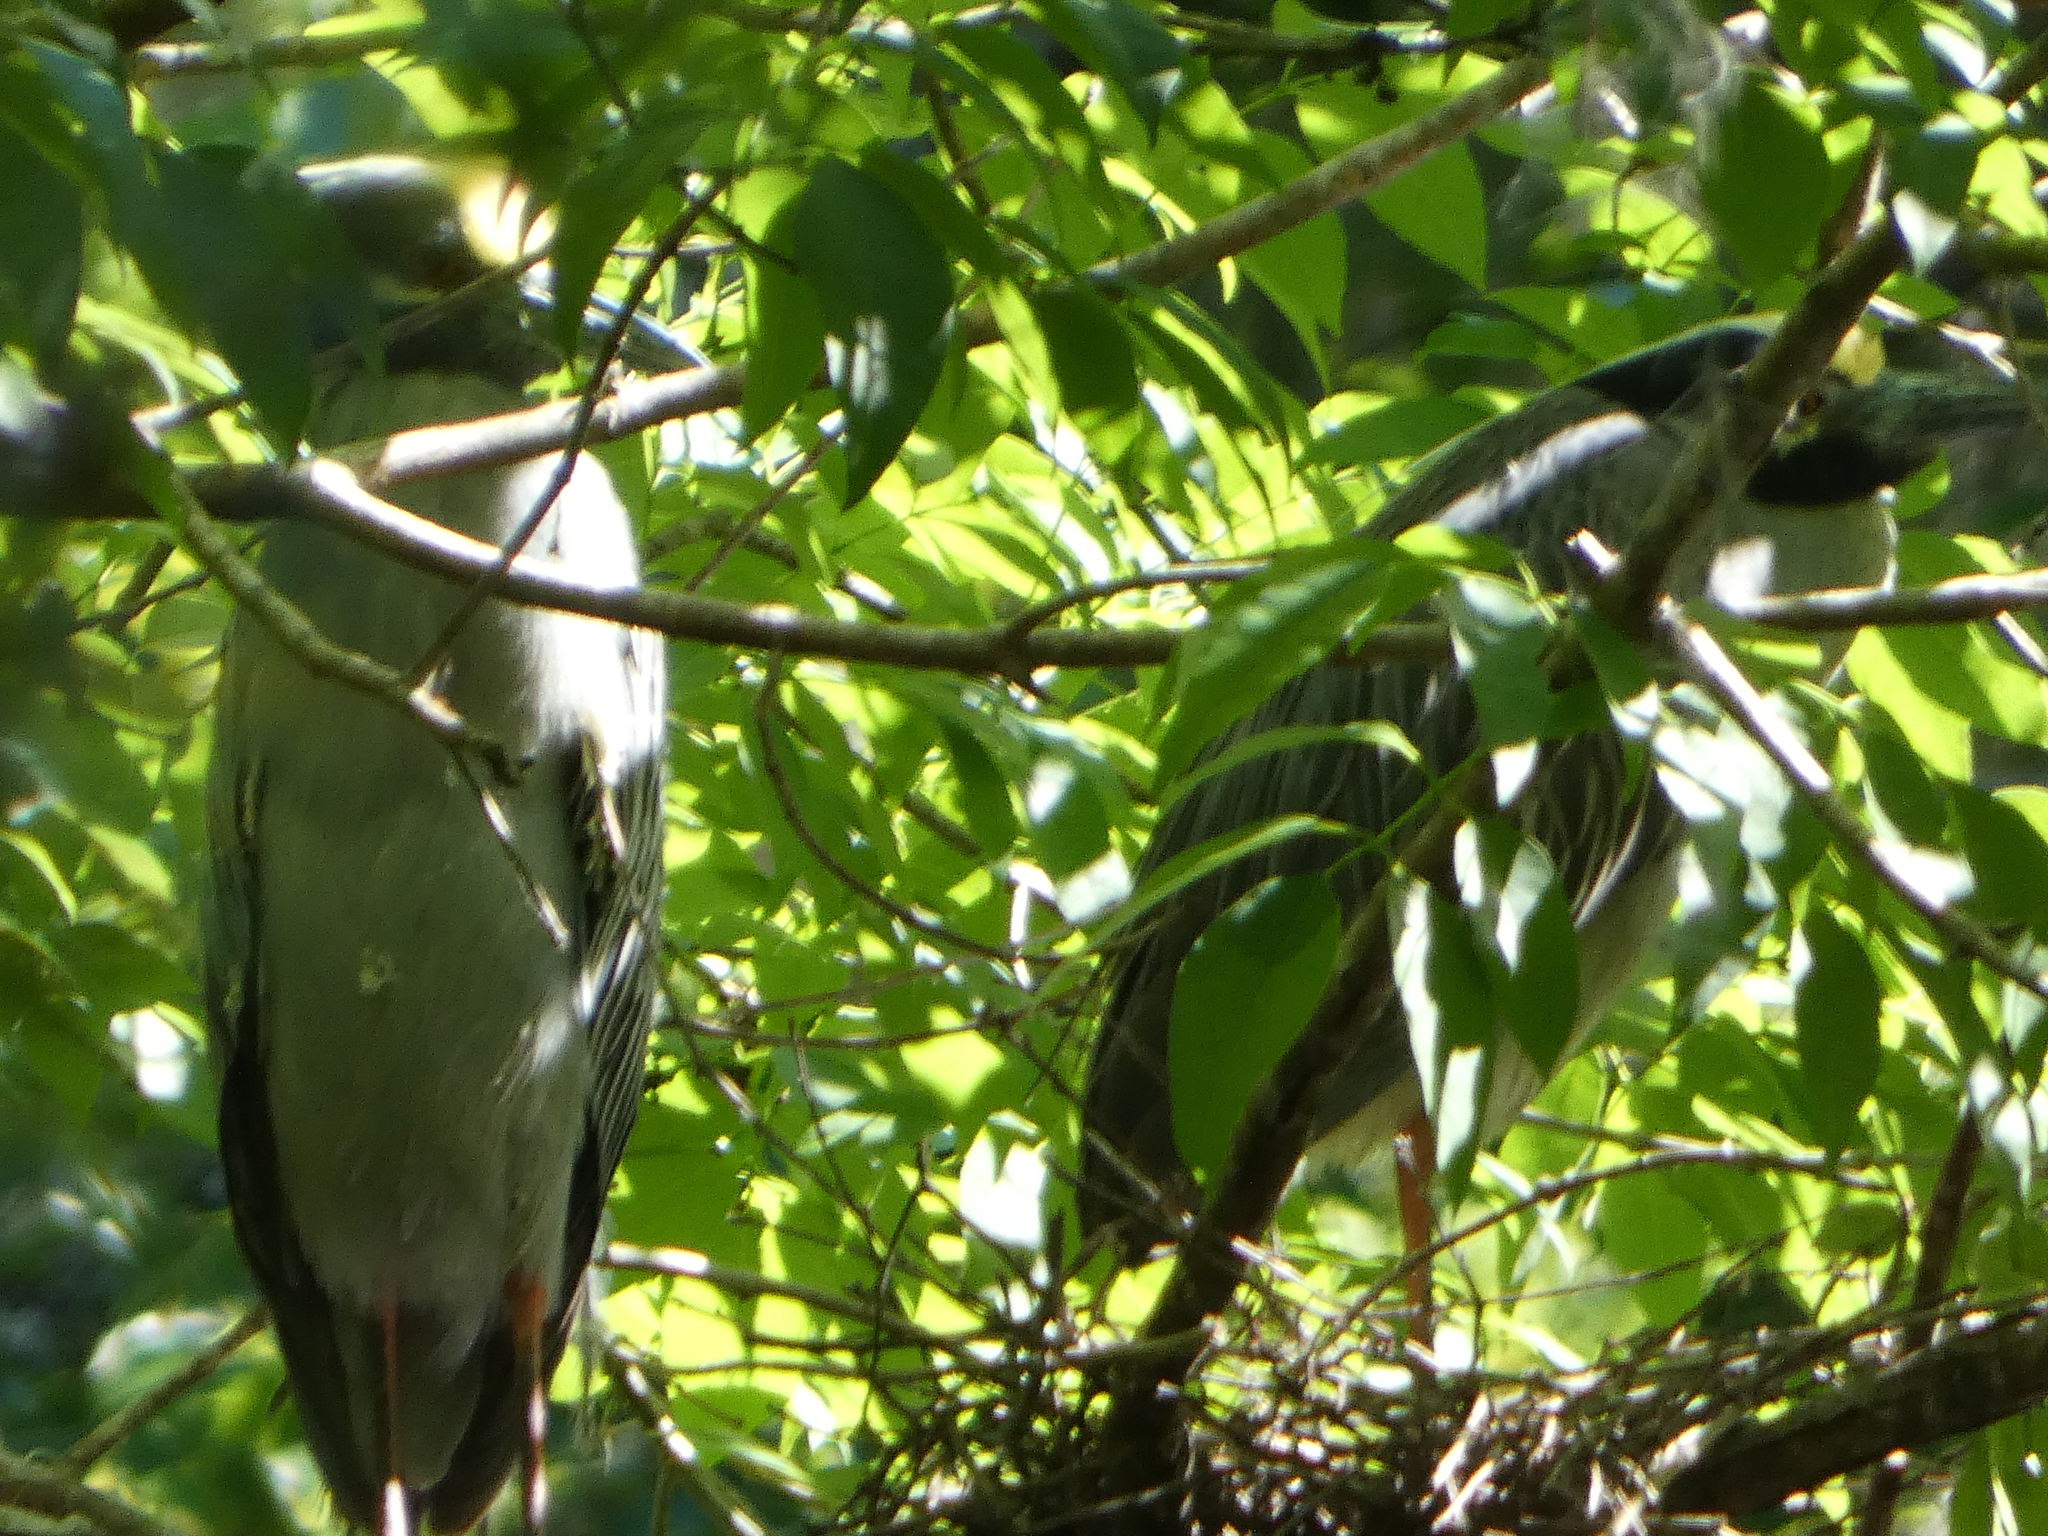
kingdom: Animalia
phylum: Chordata
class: Aves
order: Pelecaniformes
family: Ardeidae
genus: Nyctanassa
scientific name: Nyctanassa violacea
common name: Yellow-crowned night heron
